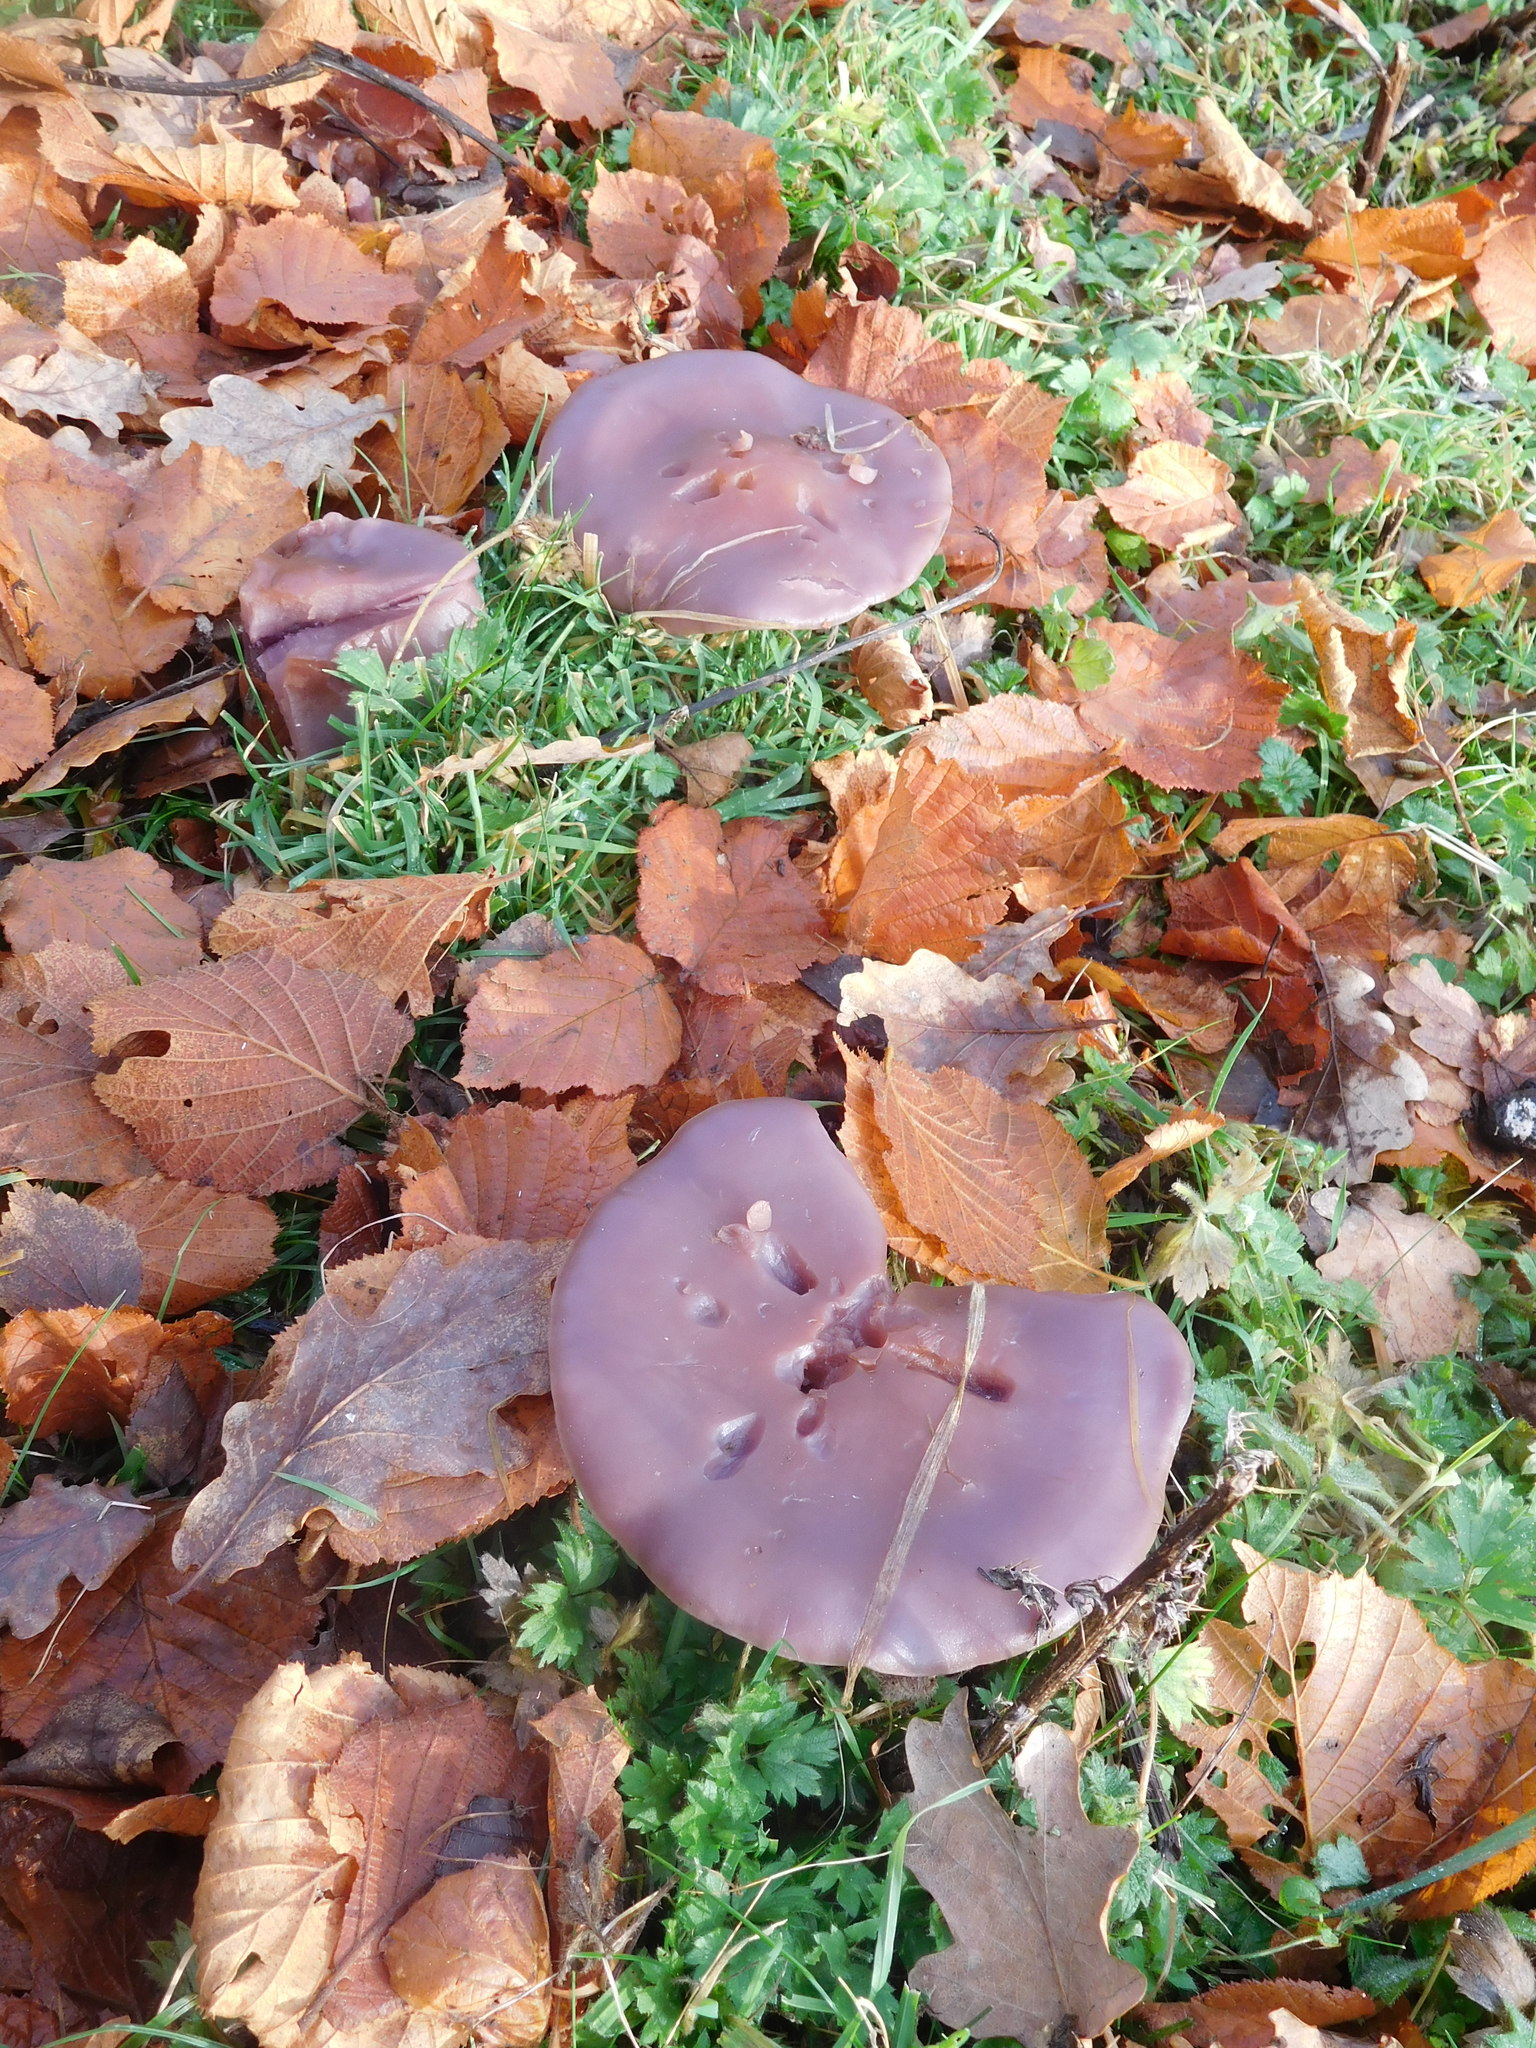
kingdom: Fungi
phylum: Basidiomycota
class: Agaricomycetes
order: Agaricales
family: Tricholomataceae
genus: Collybia
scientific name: Collybia
